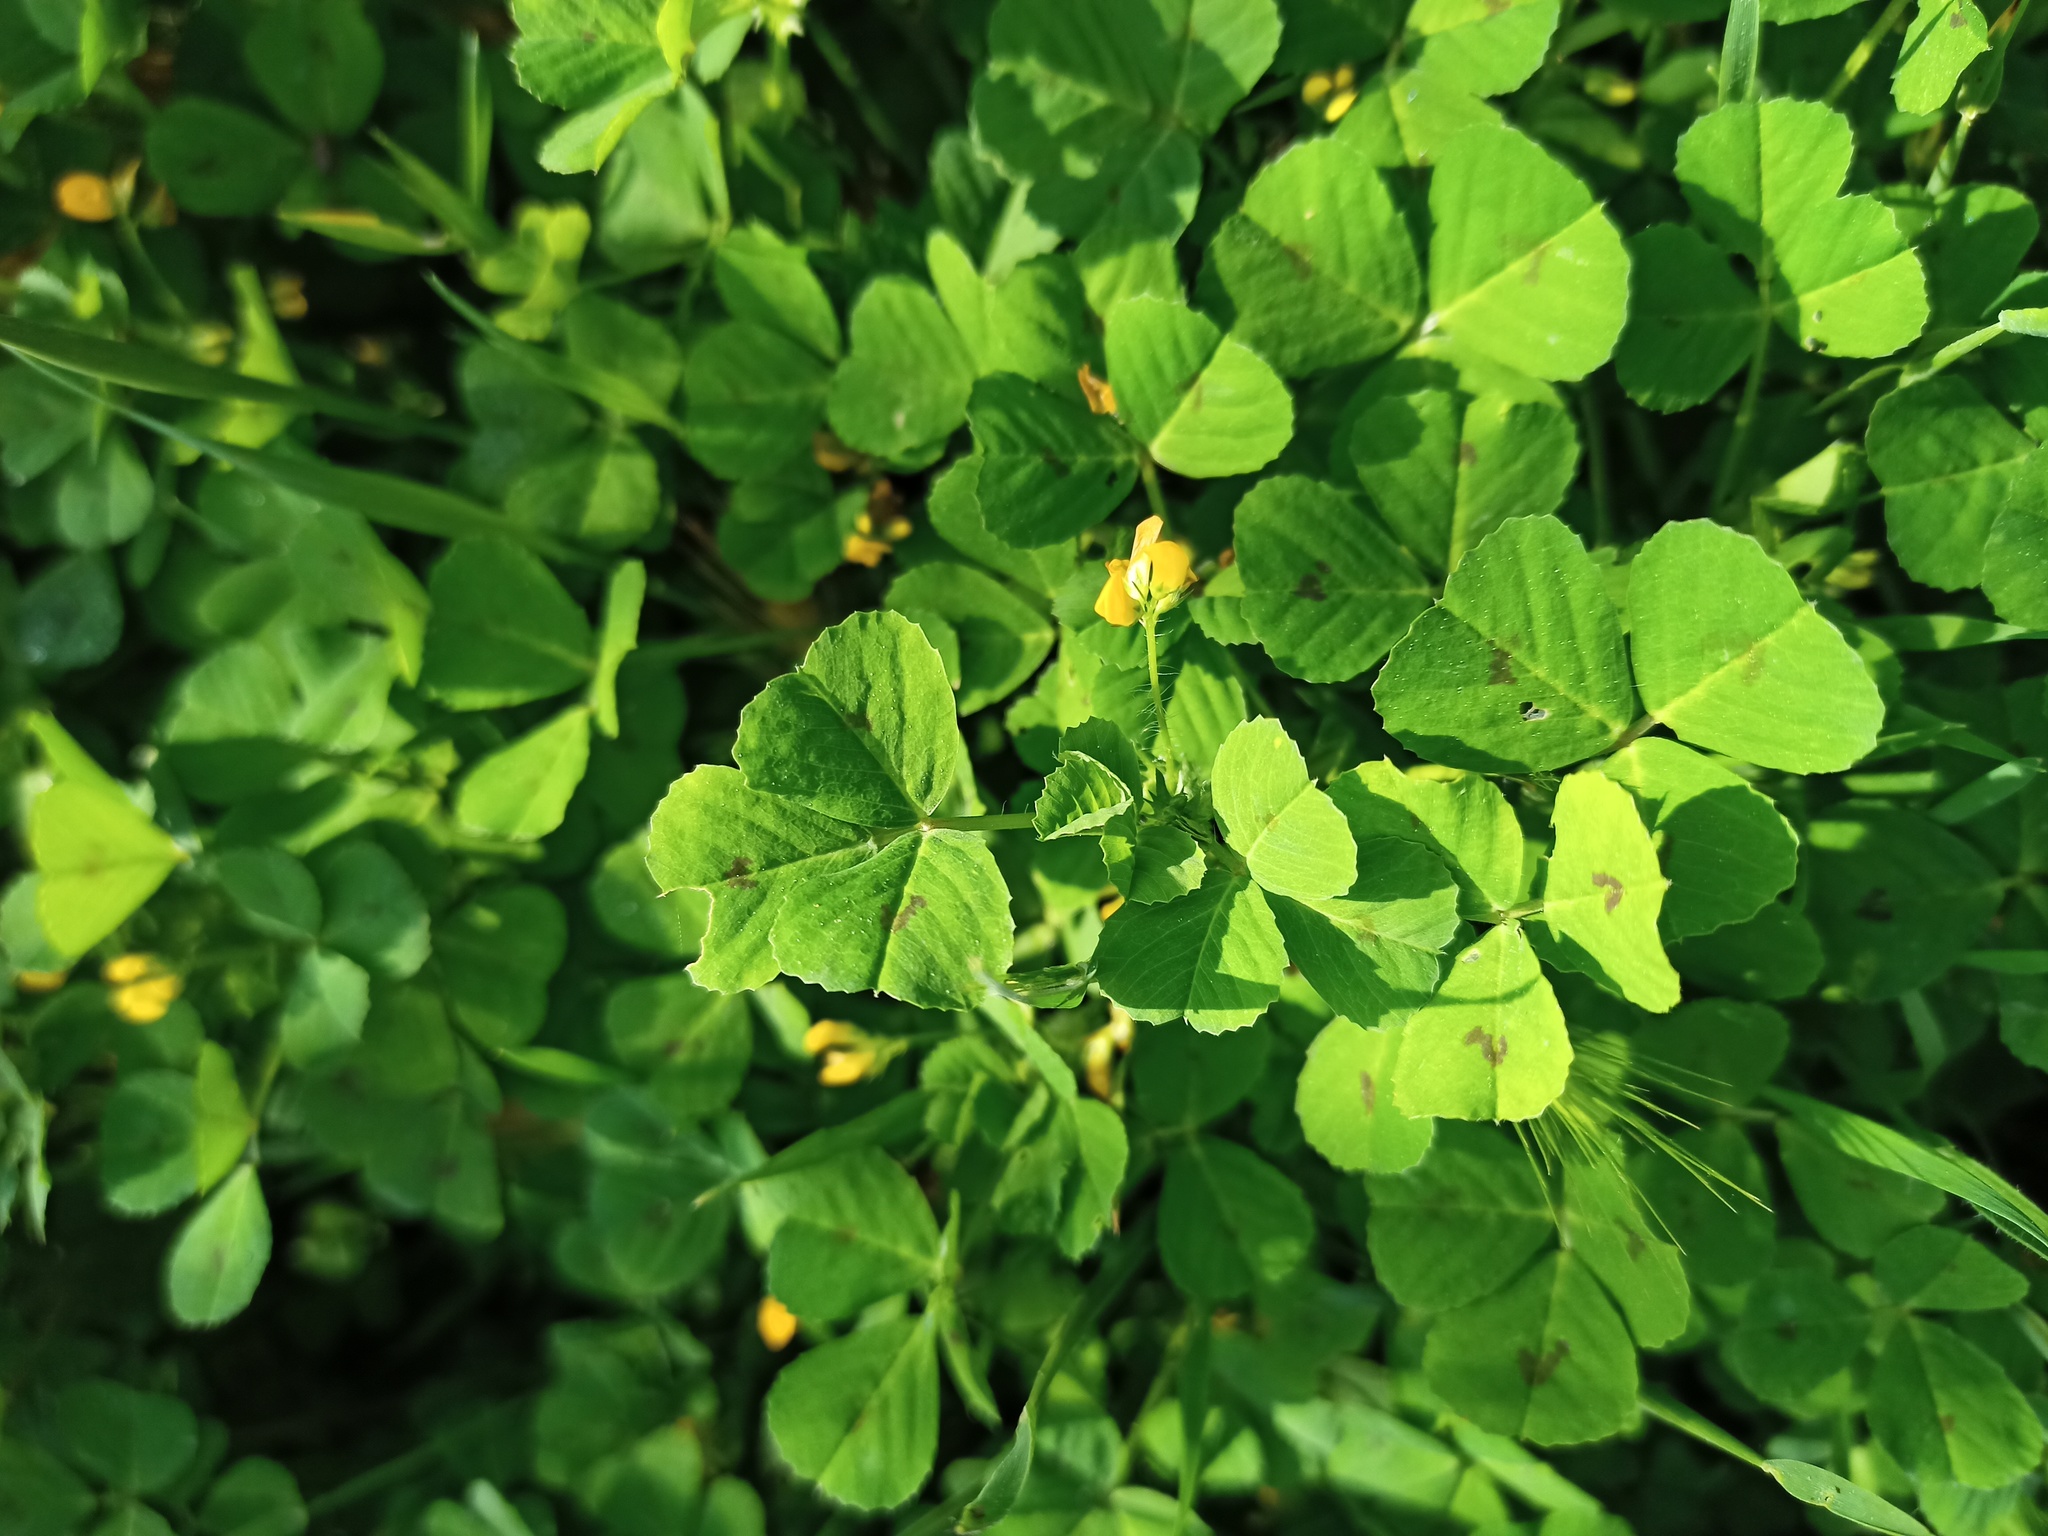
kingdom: Plantae
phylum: Tracheophyta
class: Magnoliopsida
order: Fabales
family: Fabaceae
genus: Medicago
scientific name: Medicago arabica
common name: Spotted medick
